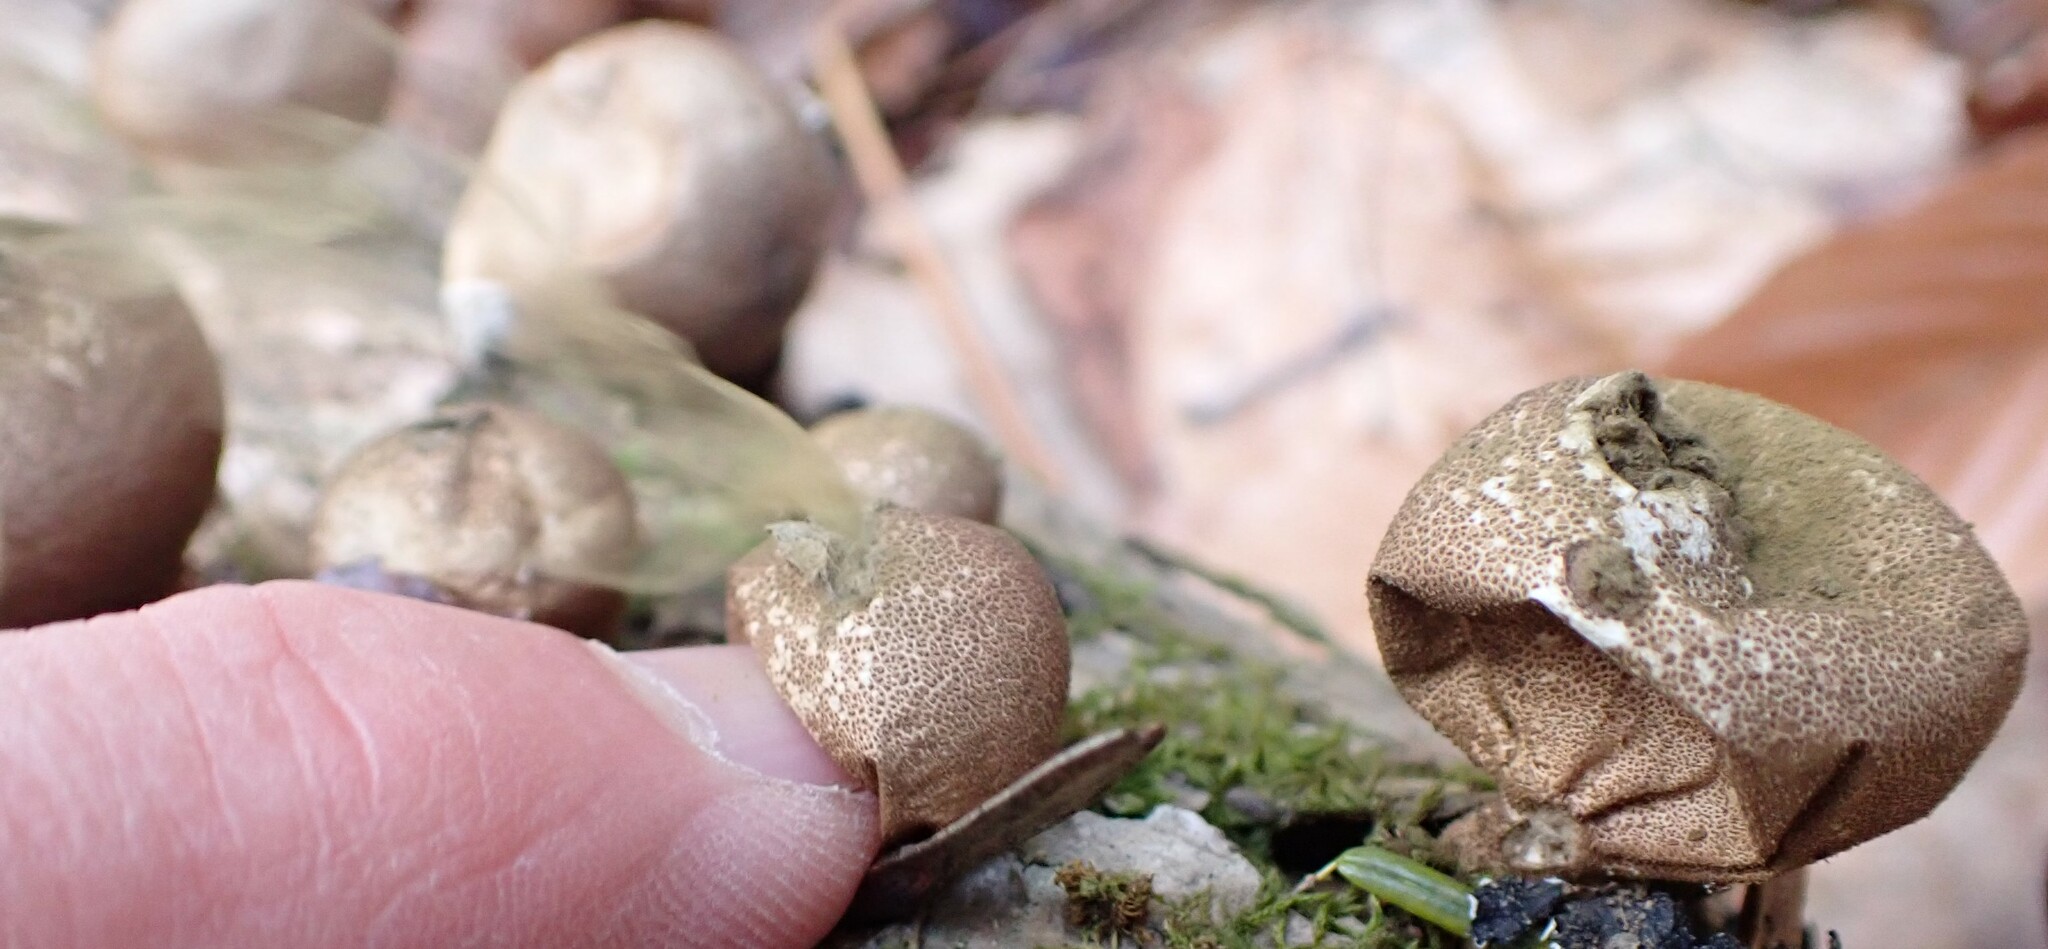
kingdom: Fungi
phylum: Basidiomycota
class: Agaricomycetes
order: Agaricales
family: Lycoperdaceae
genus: Apioperdon
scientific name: Apioperdon pyriforme
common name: Pear-shaped puffball
